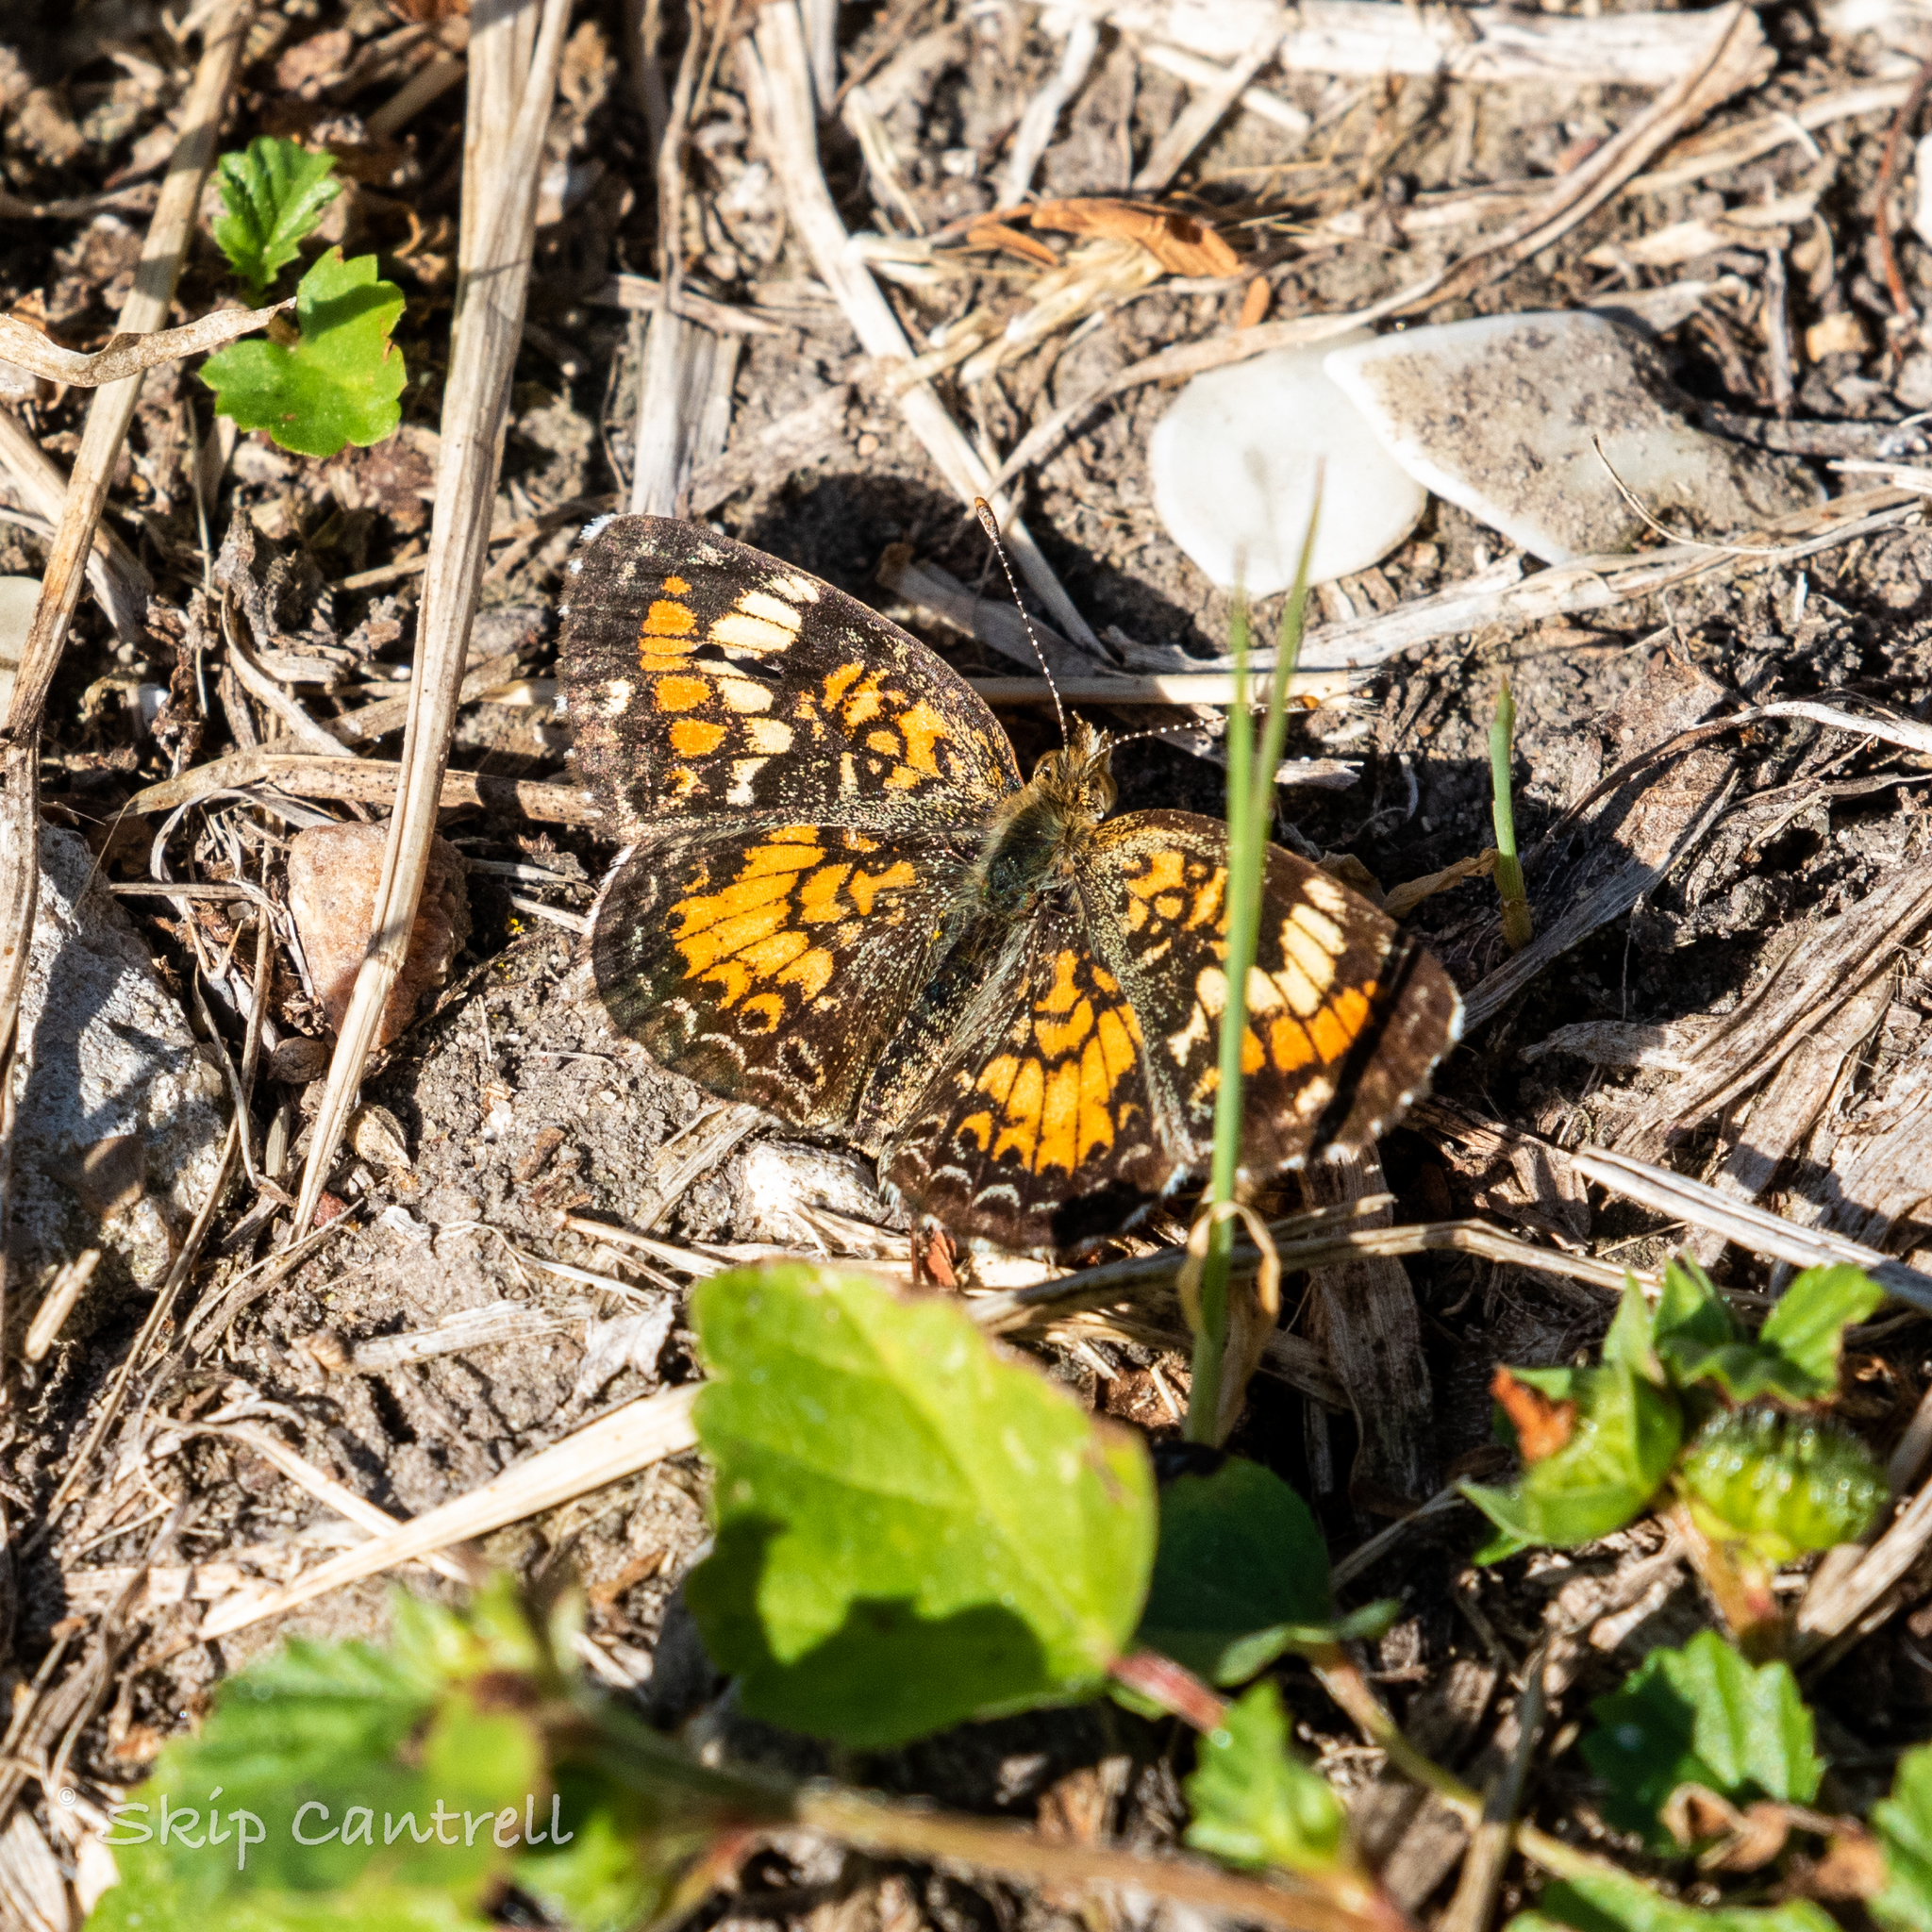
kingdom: Animalia
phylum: Arthropoda
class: Insecta
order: Lepidoptera
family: Nymphalidae
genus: Phyciodes
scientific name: Phyciodes phaon
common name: Phaon crescent
